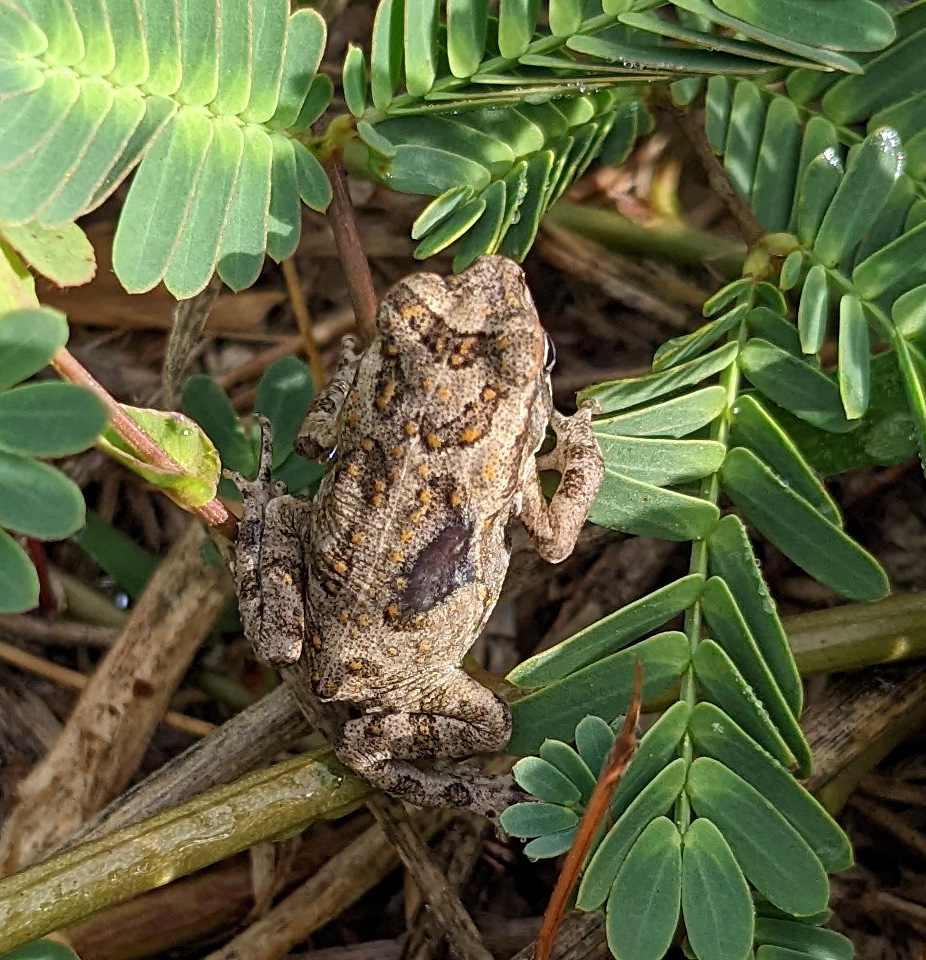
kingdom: Animalia
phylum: Chordata
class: Amphibia
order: Anura
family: Bufonidae
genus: Rhinella
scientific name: Rhinella marina
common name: Cane toad
